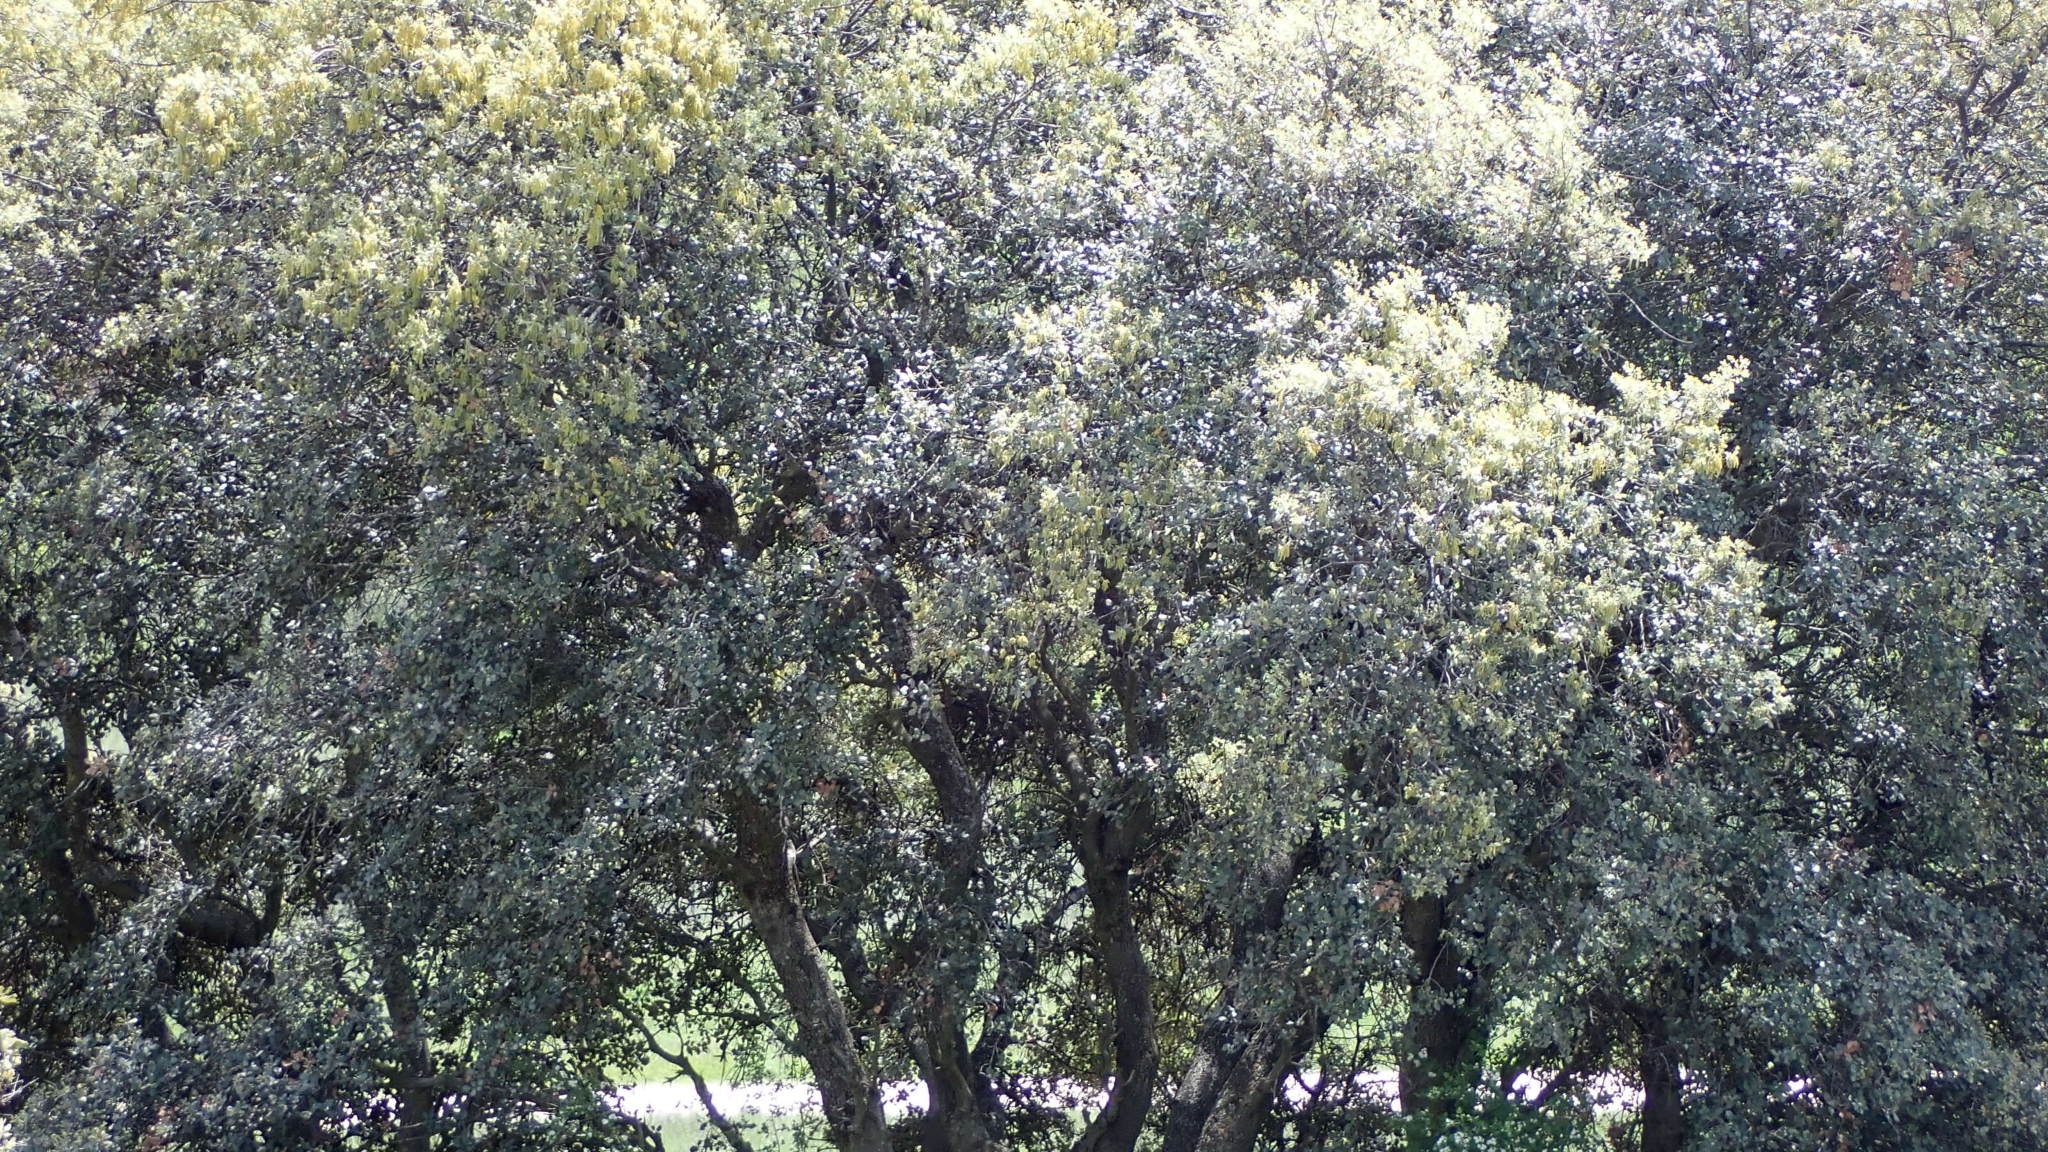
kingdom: Plantae
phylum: Tracheophyta
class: Magnoliopsida
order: Fagales
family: Fagaceae
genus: Quercus
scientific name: Quercus rotundifolia
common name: Holm oak
